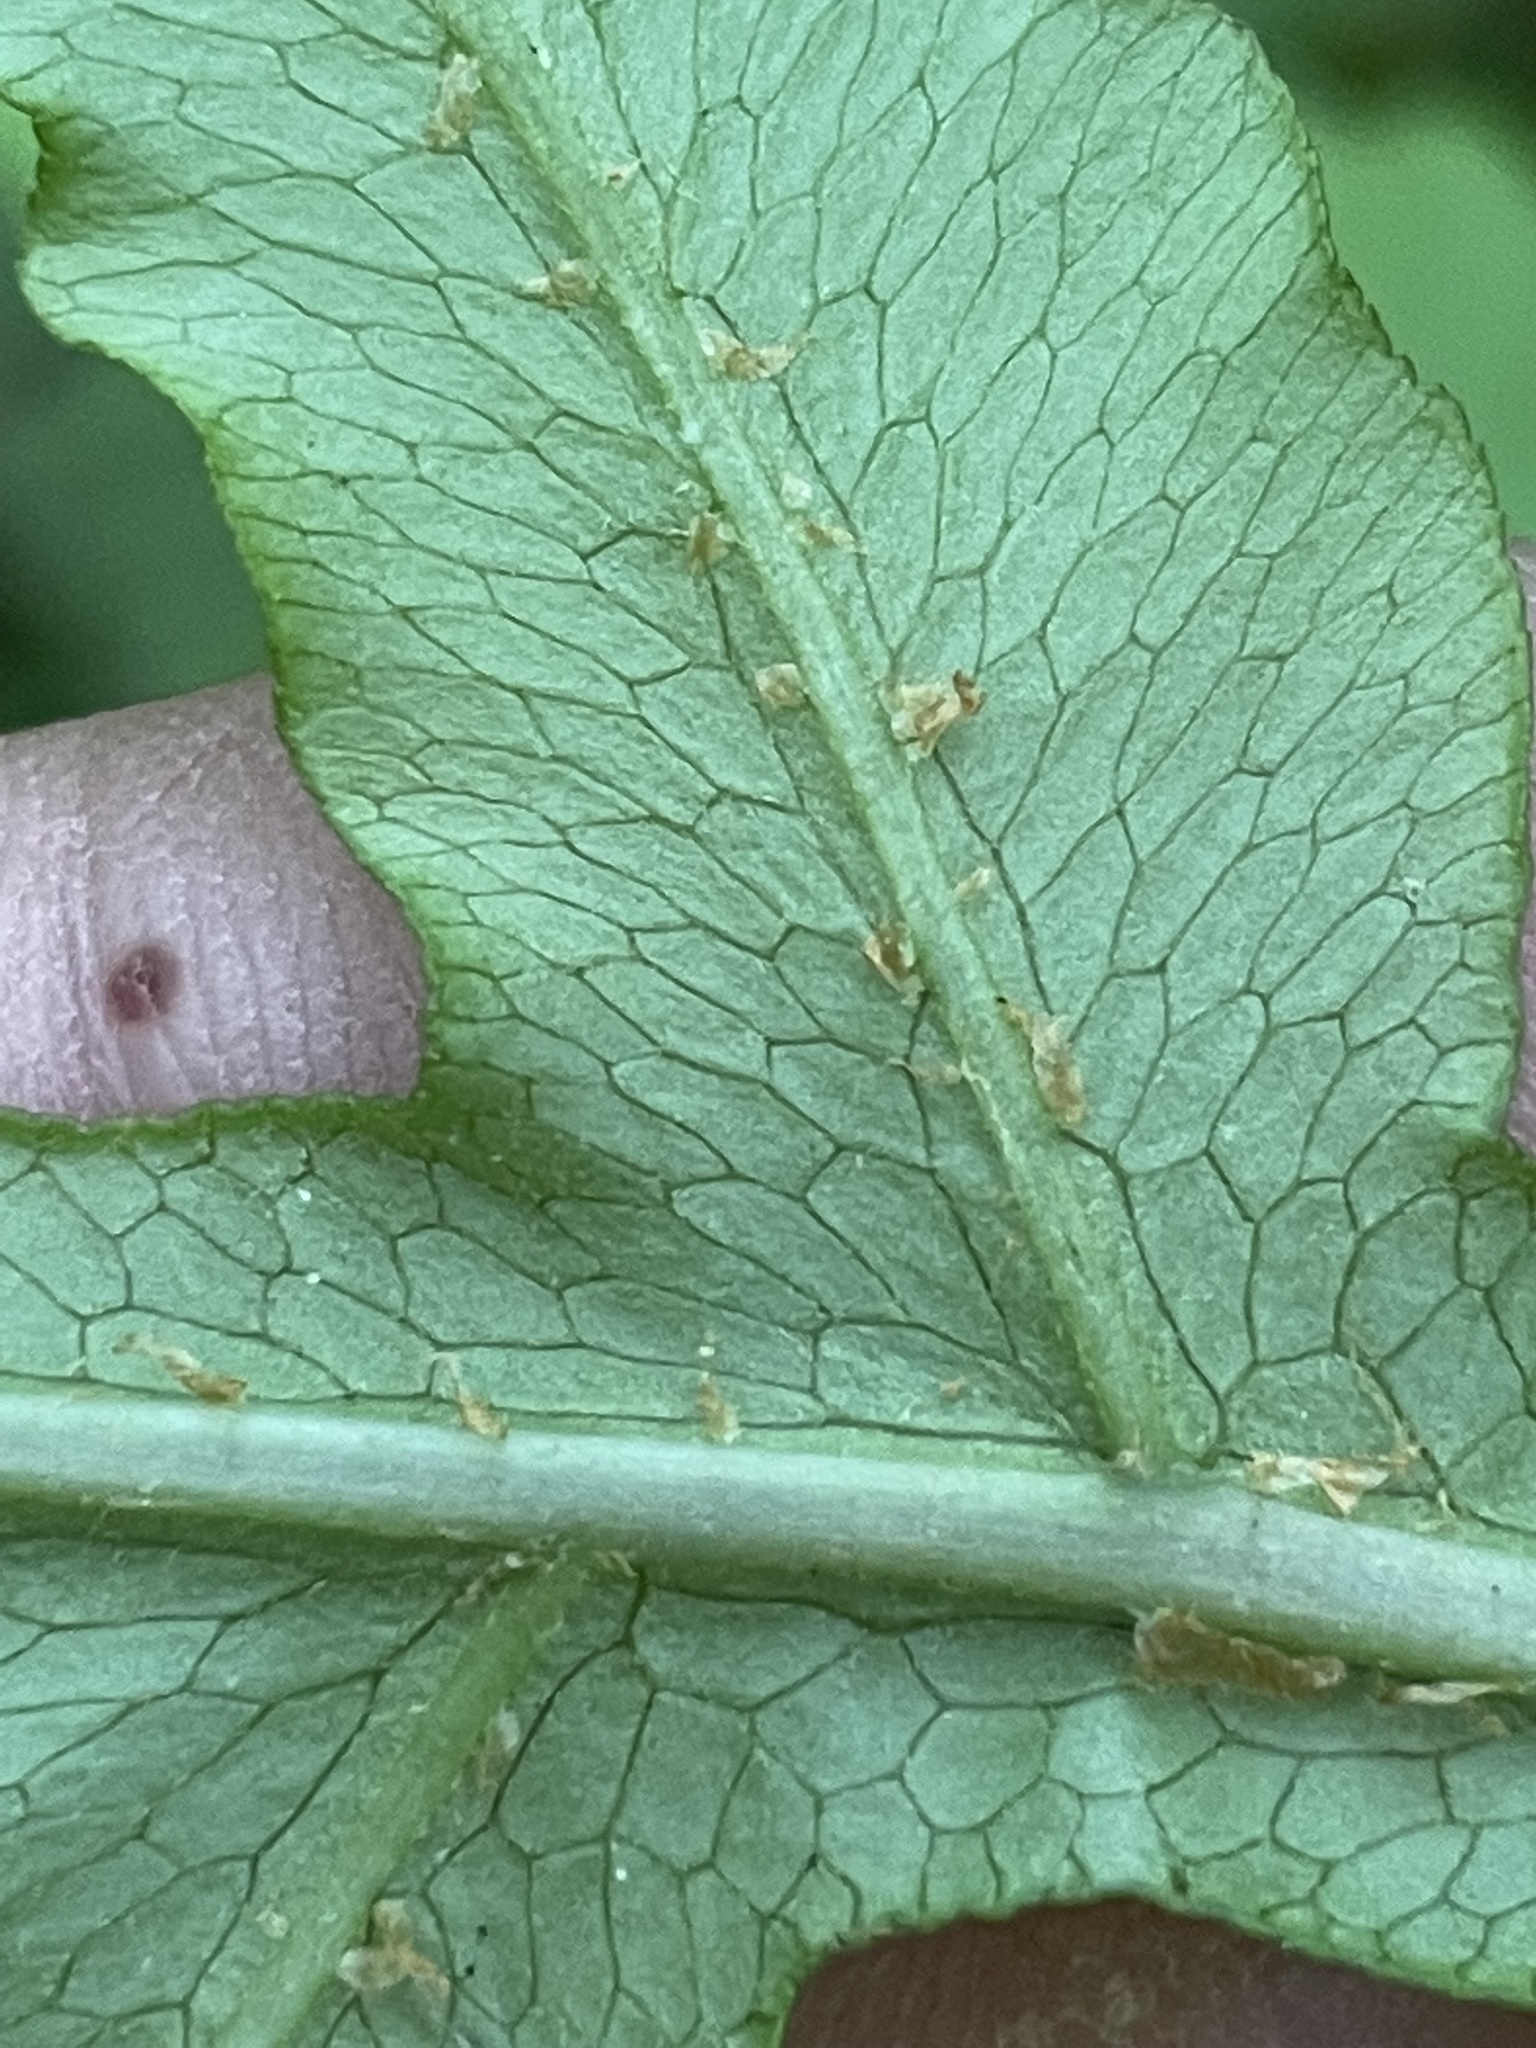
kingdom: Plantae
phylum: Tracheophyta
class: Polypodiopsida
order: Polypodiales
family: Blechnaceae
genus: Lorinseria
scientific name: Lorinseria areolata
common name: Dwarf chain fern
